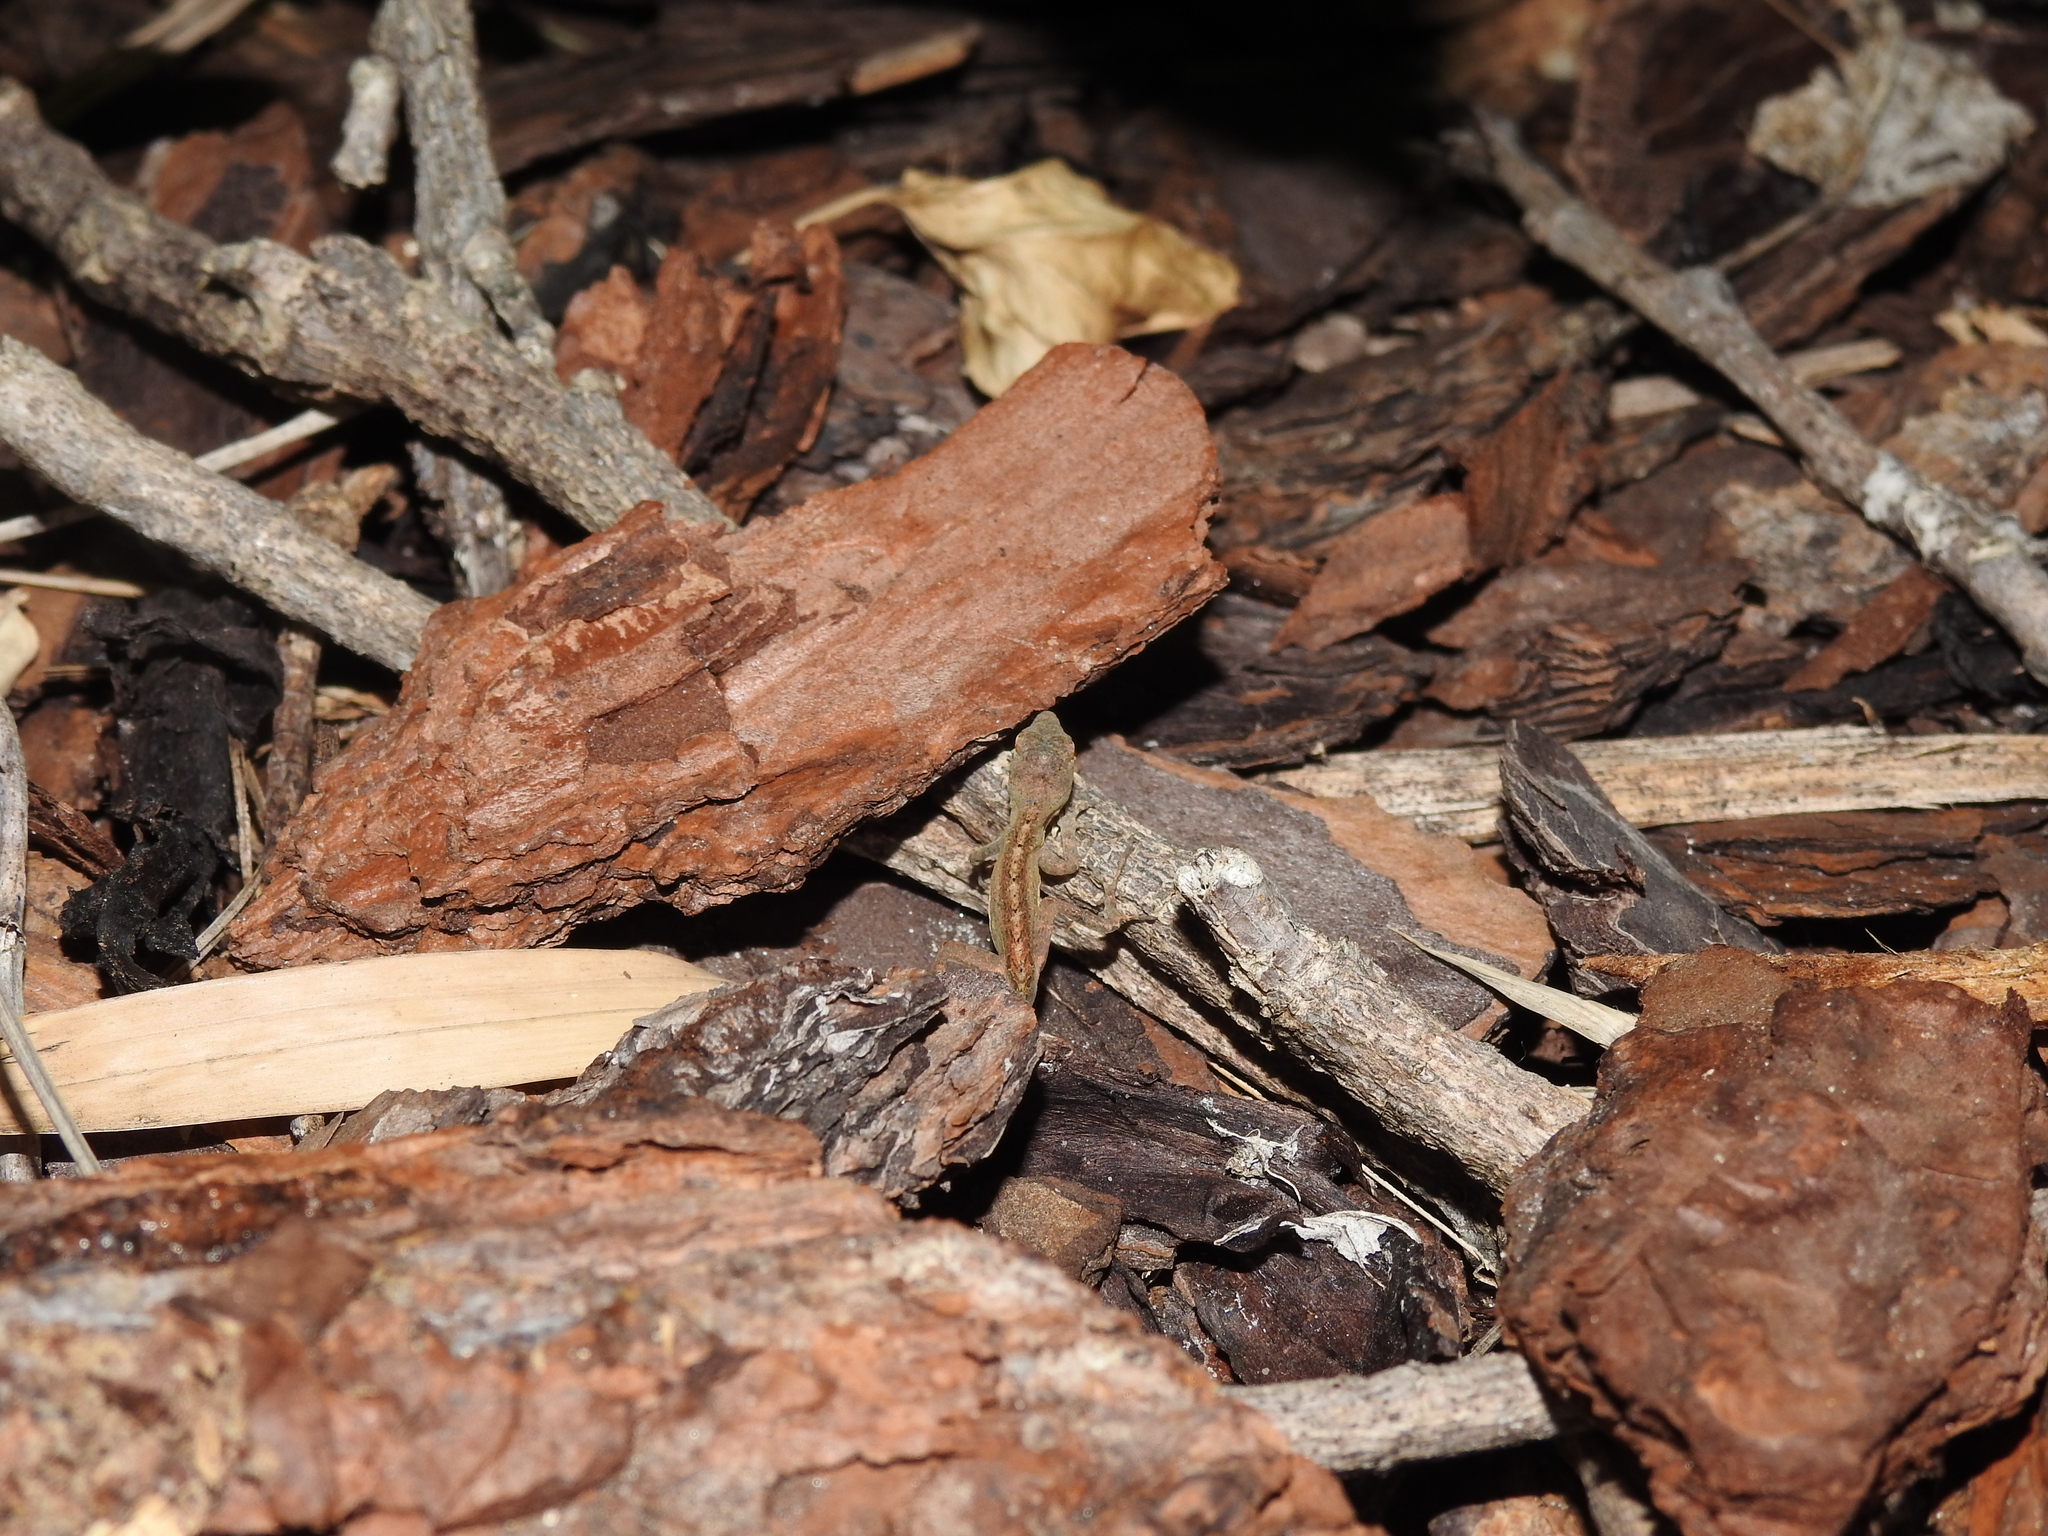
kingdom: Animalia
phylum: Chordata
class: Squamata
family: Dactyloidae
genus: Anolis
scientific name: Anolis sagrei
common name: Brown anole
